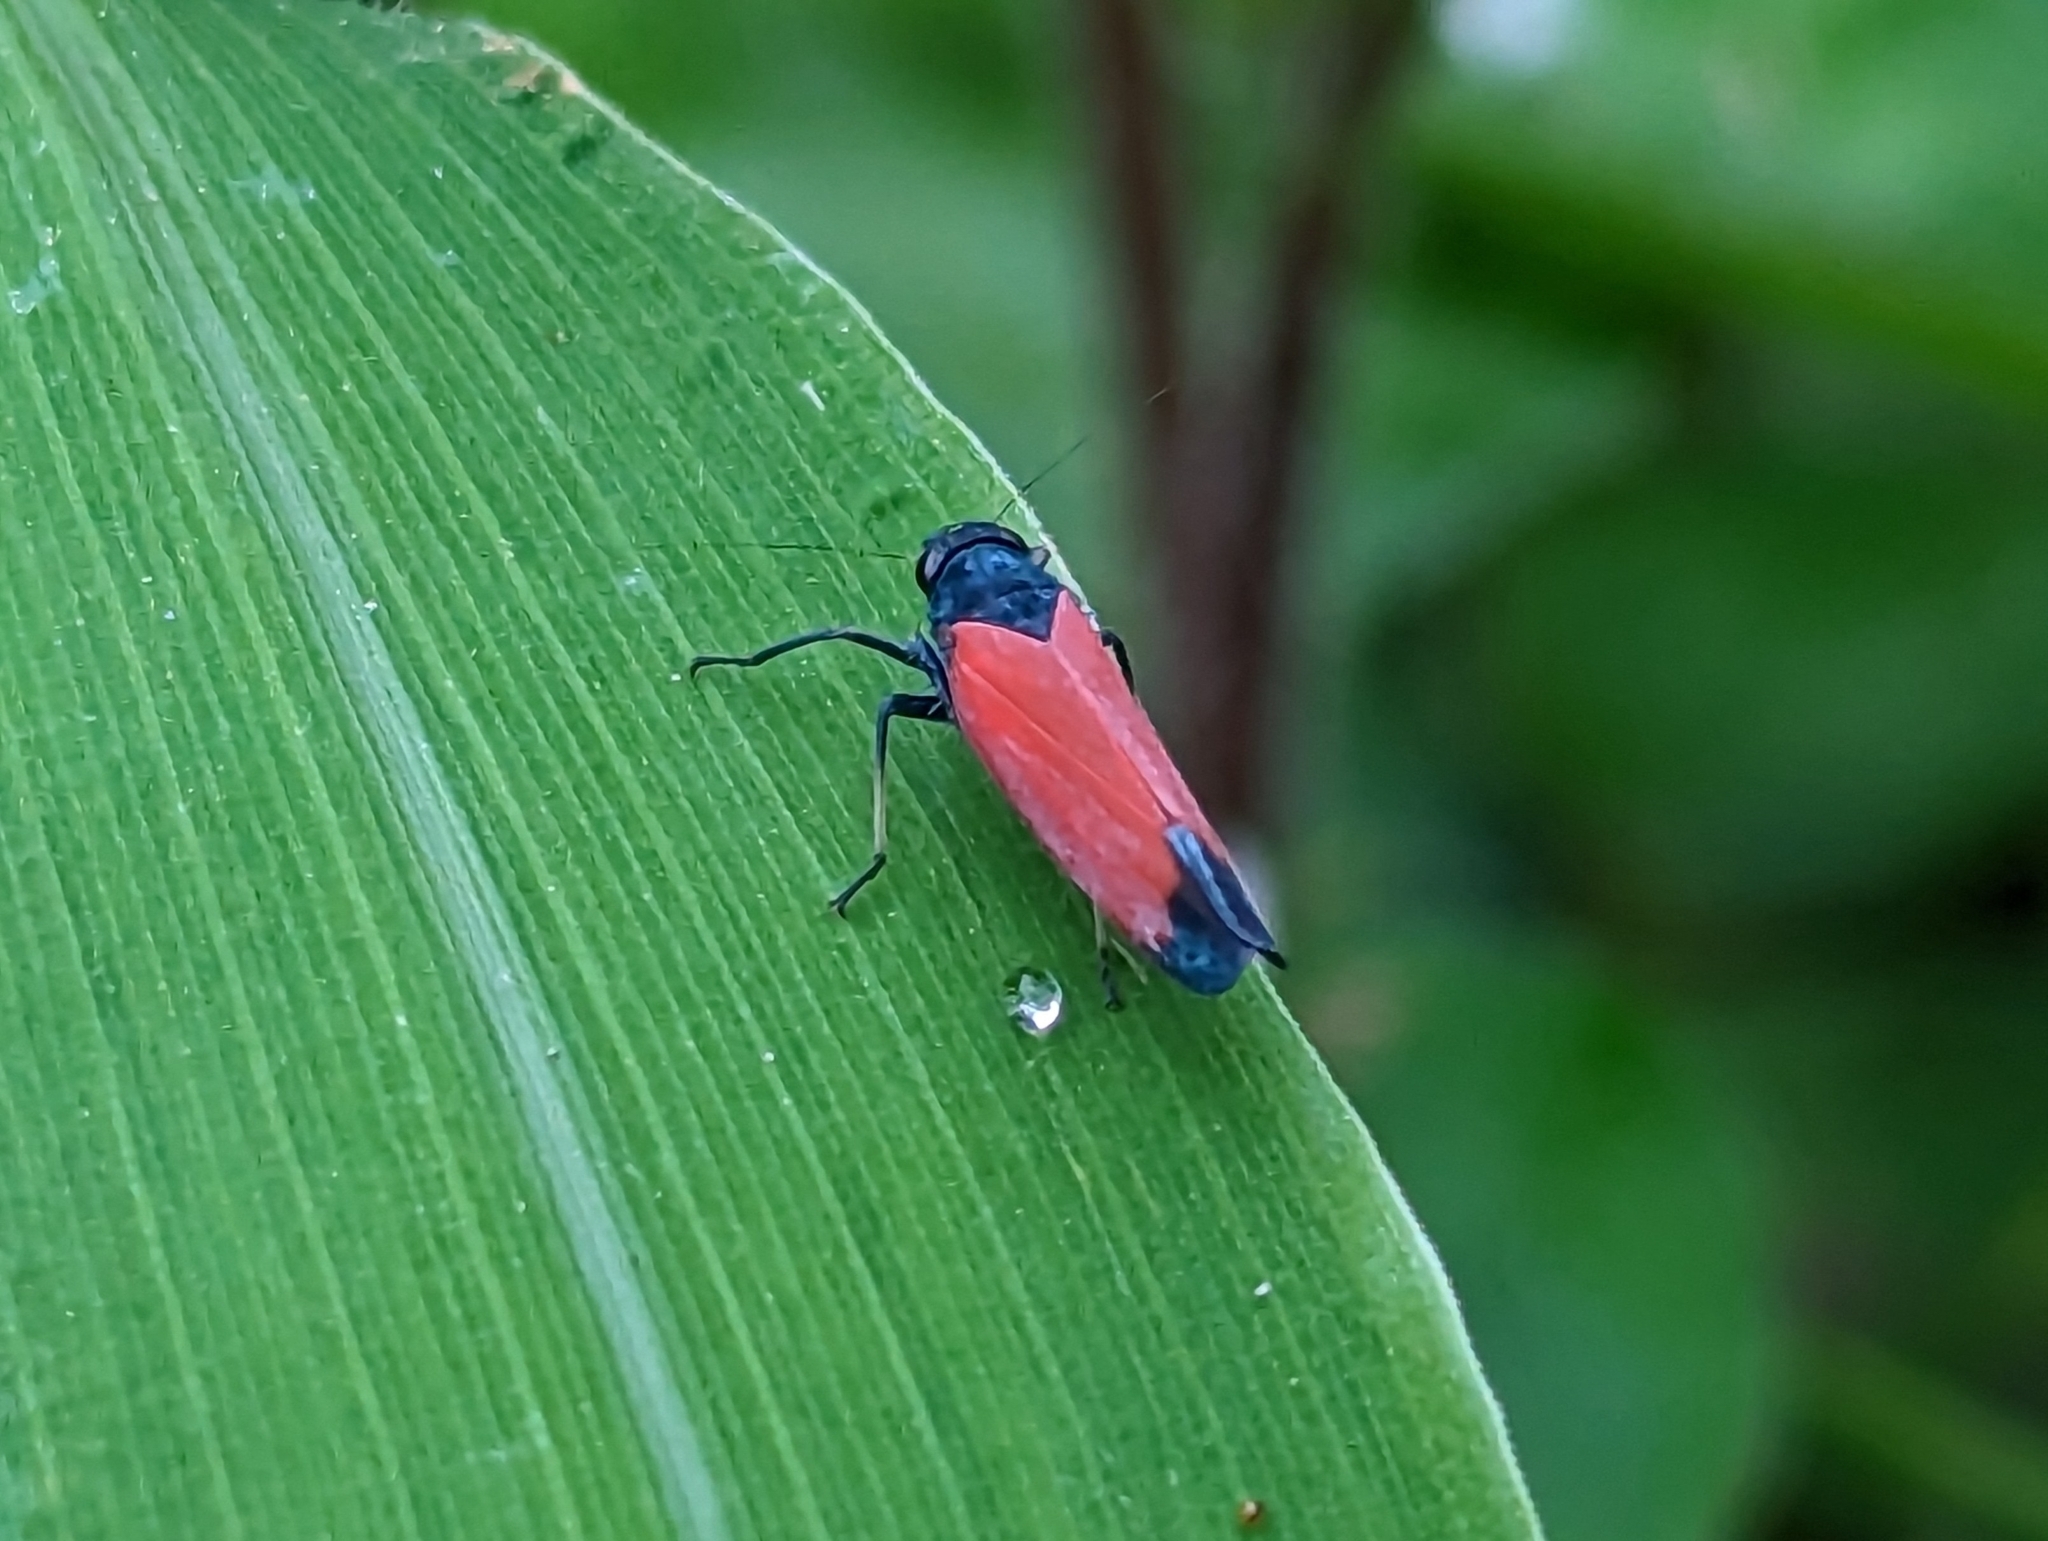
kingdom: Animalia
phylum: Arthropoda
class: Insecta
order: Hemiptera
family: Cicadellidae
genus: Cardioscarta
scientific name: Cardioscarta flavifrons
